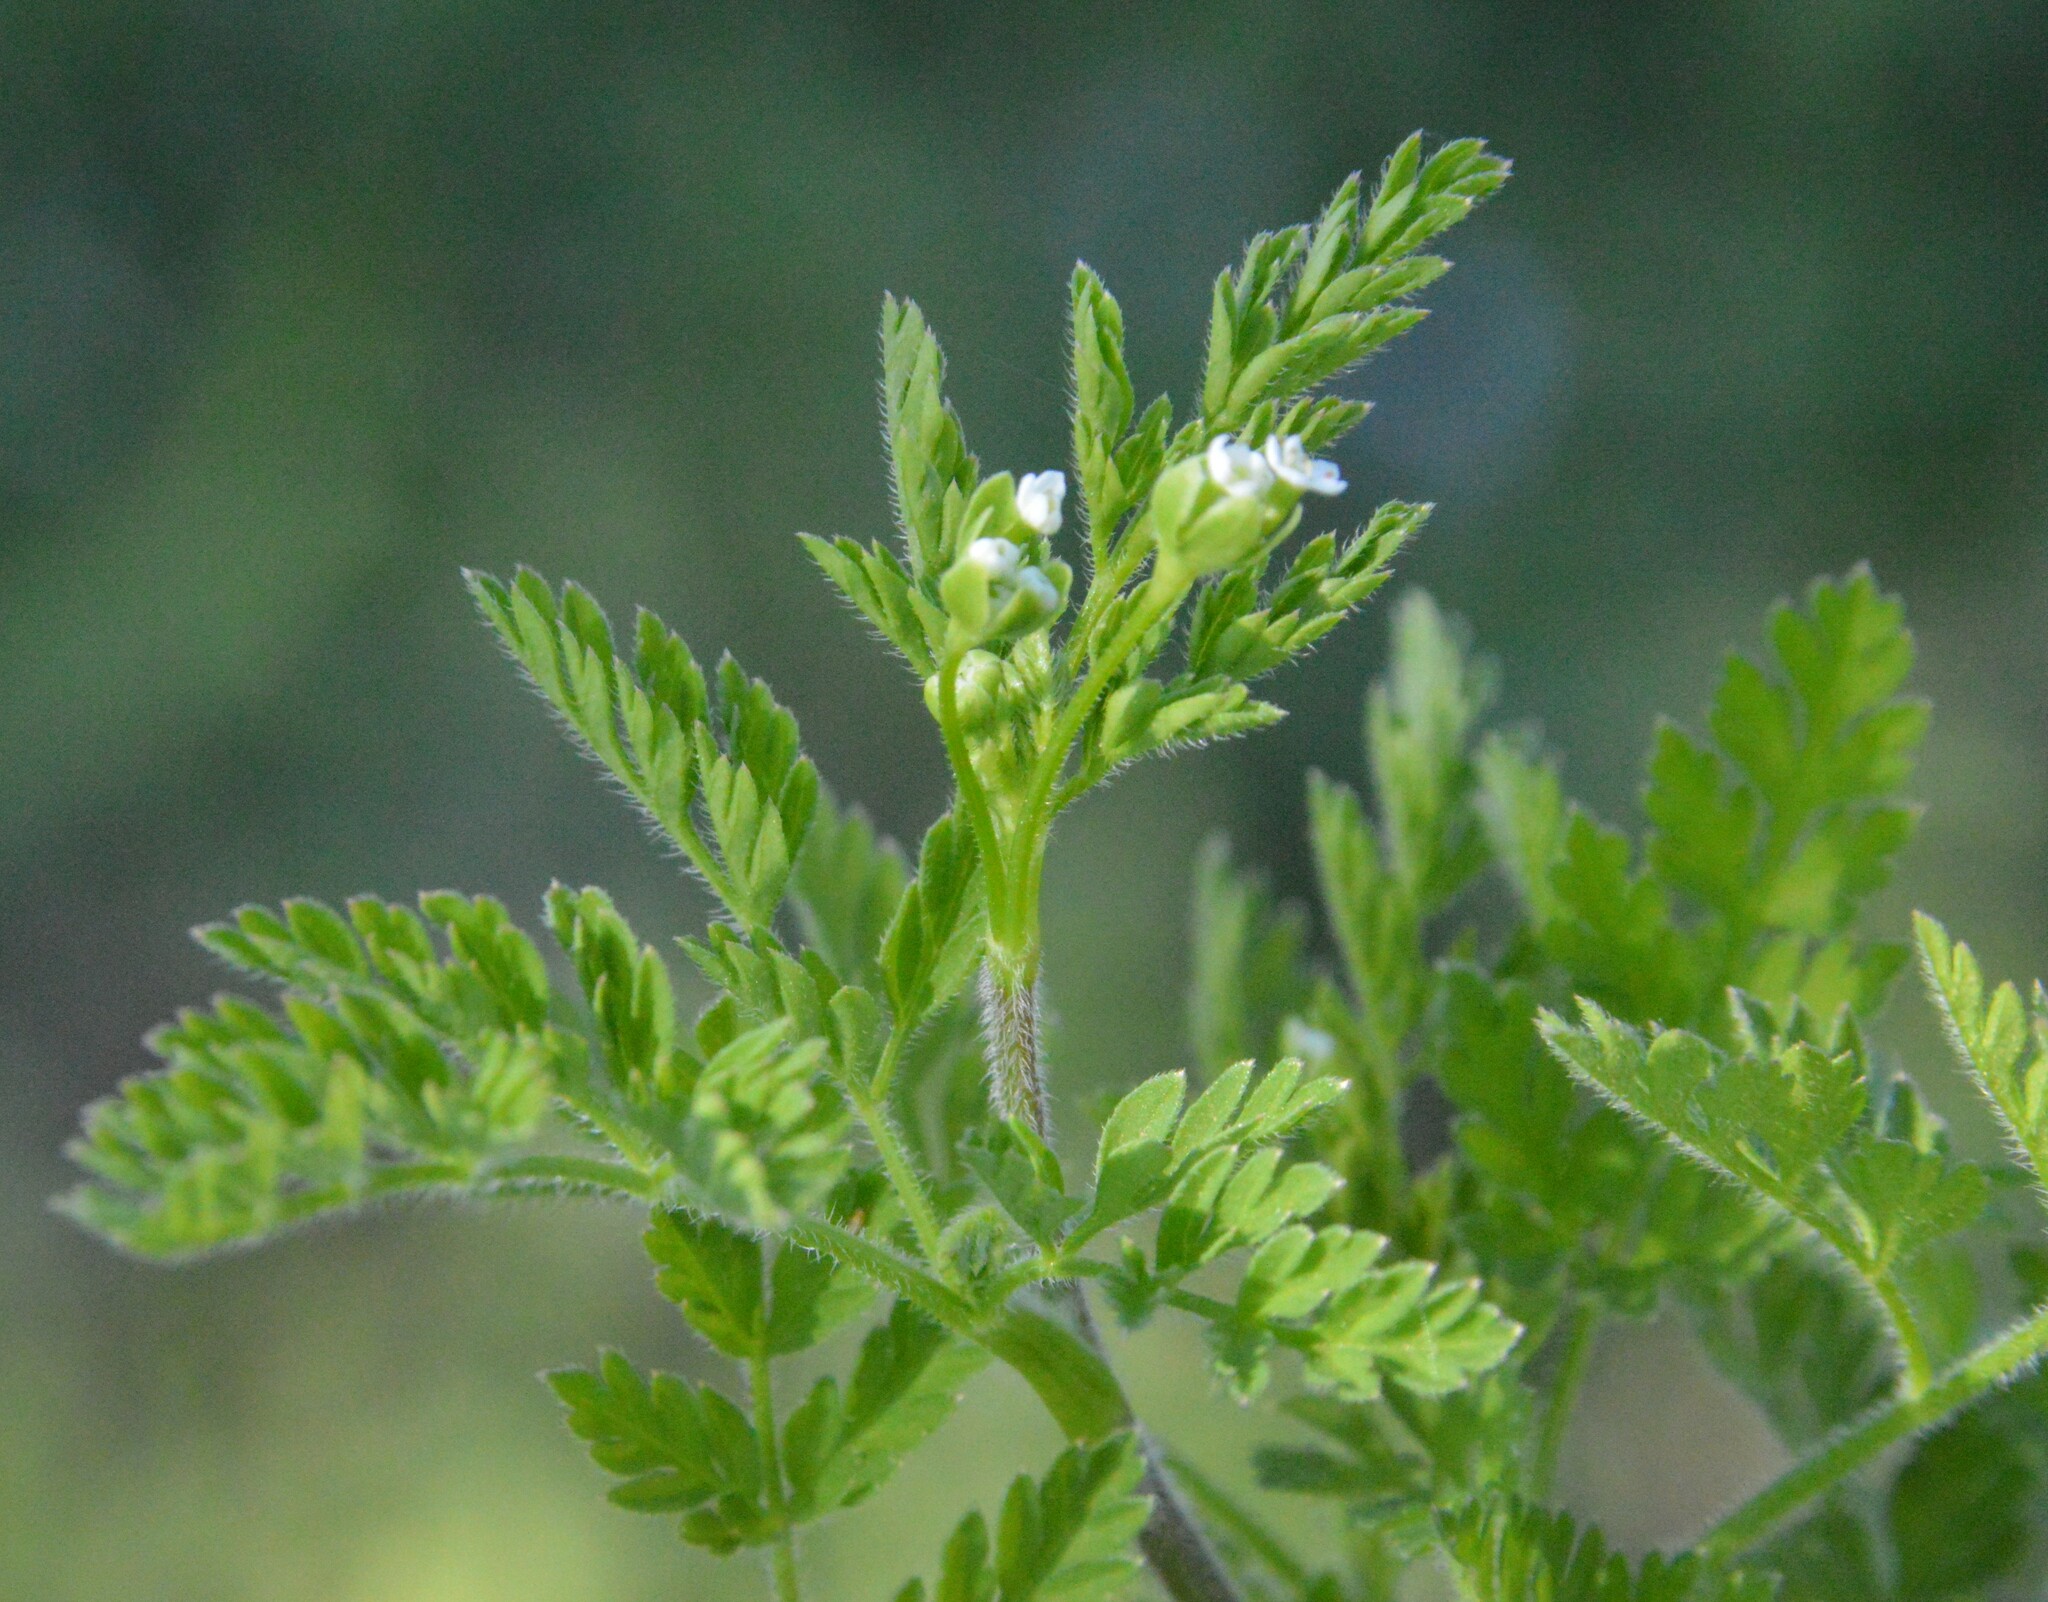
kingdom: Plantae
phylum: Tracheophyta
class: Magnoliopsida
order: Apiales
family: Apiaceae
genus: Chaerophyllum
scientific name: Chaerophyllum tainturieri
